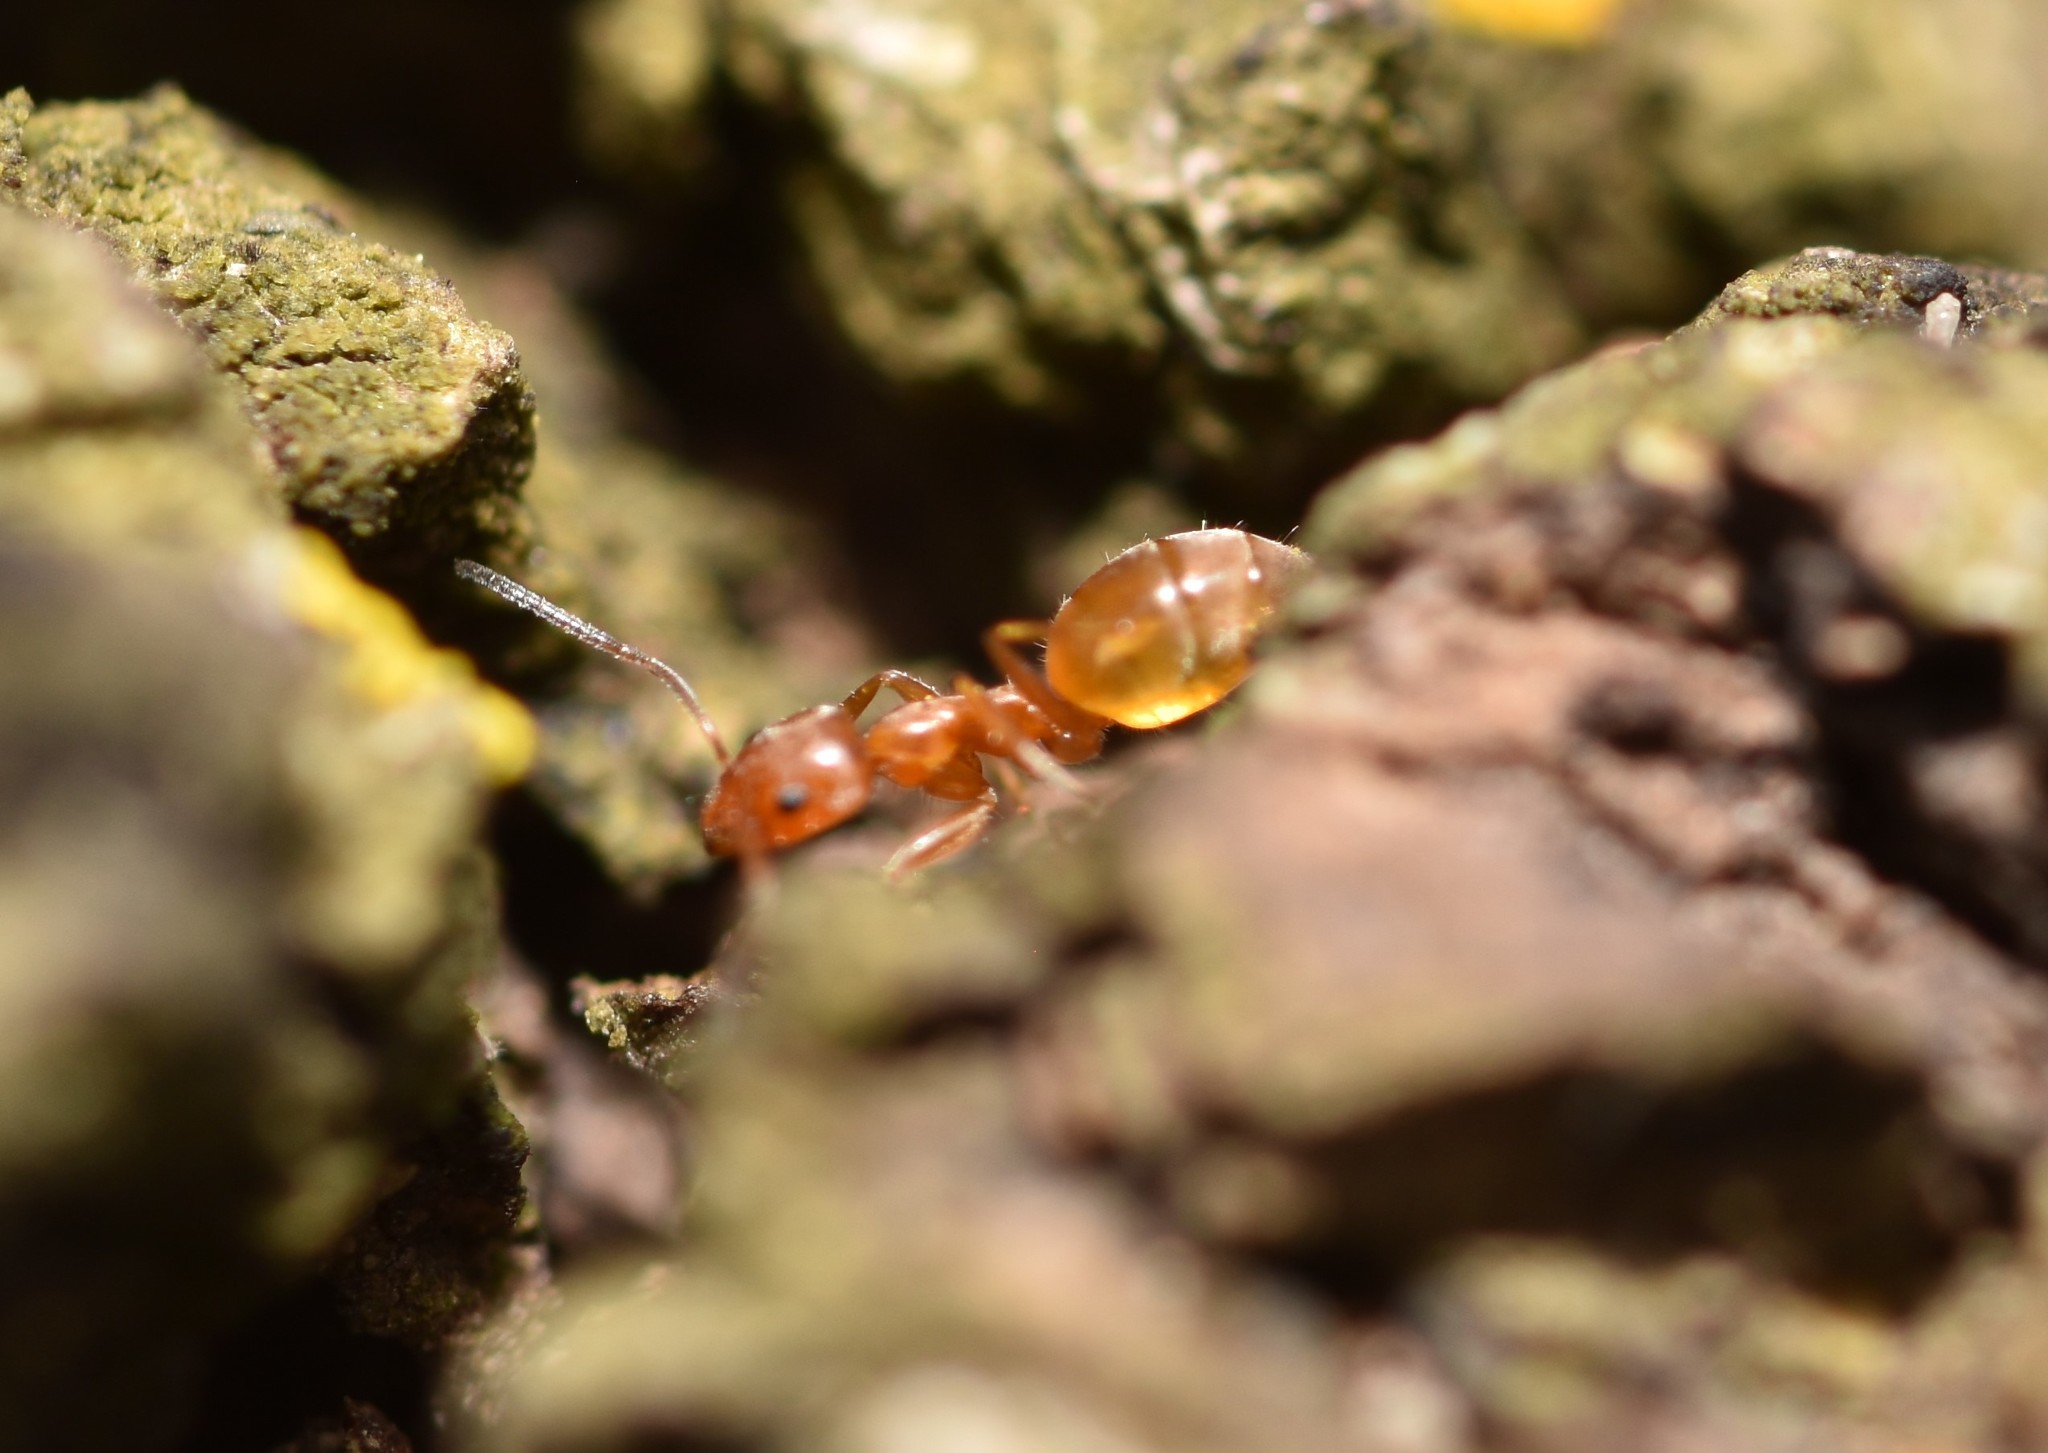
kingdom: Animalia
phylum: Arthropoda
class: Insecta
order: Hymenoptera
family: Formicidae
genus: Forelius
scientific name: Forelius mccooki
